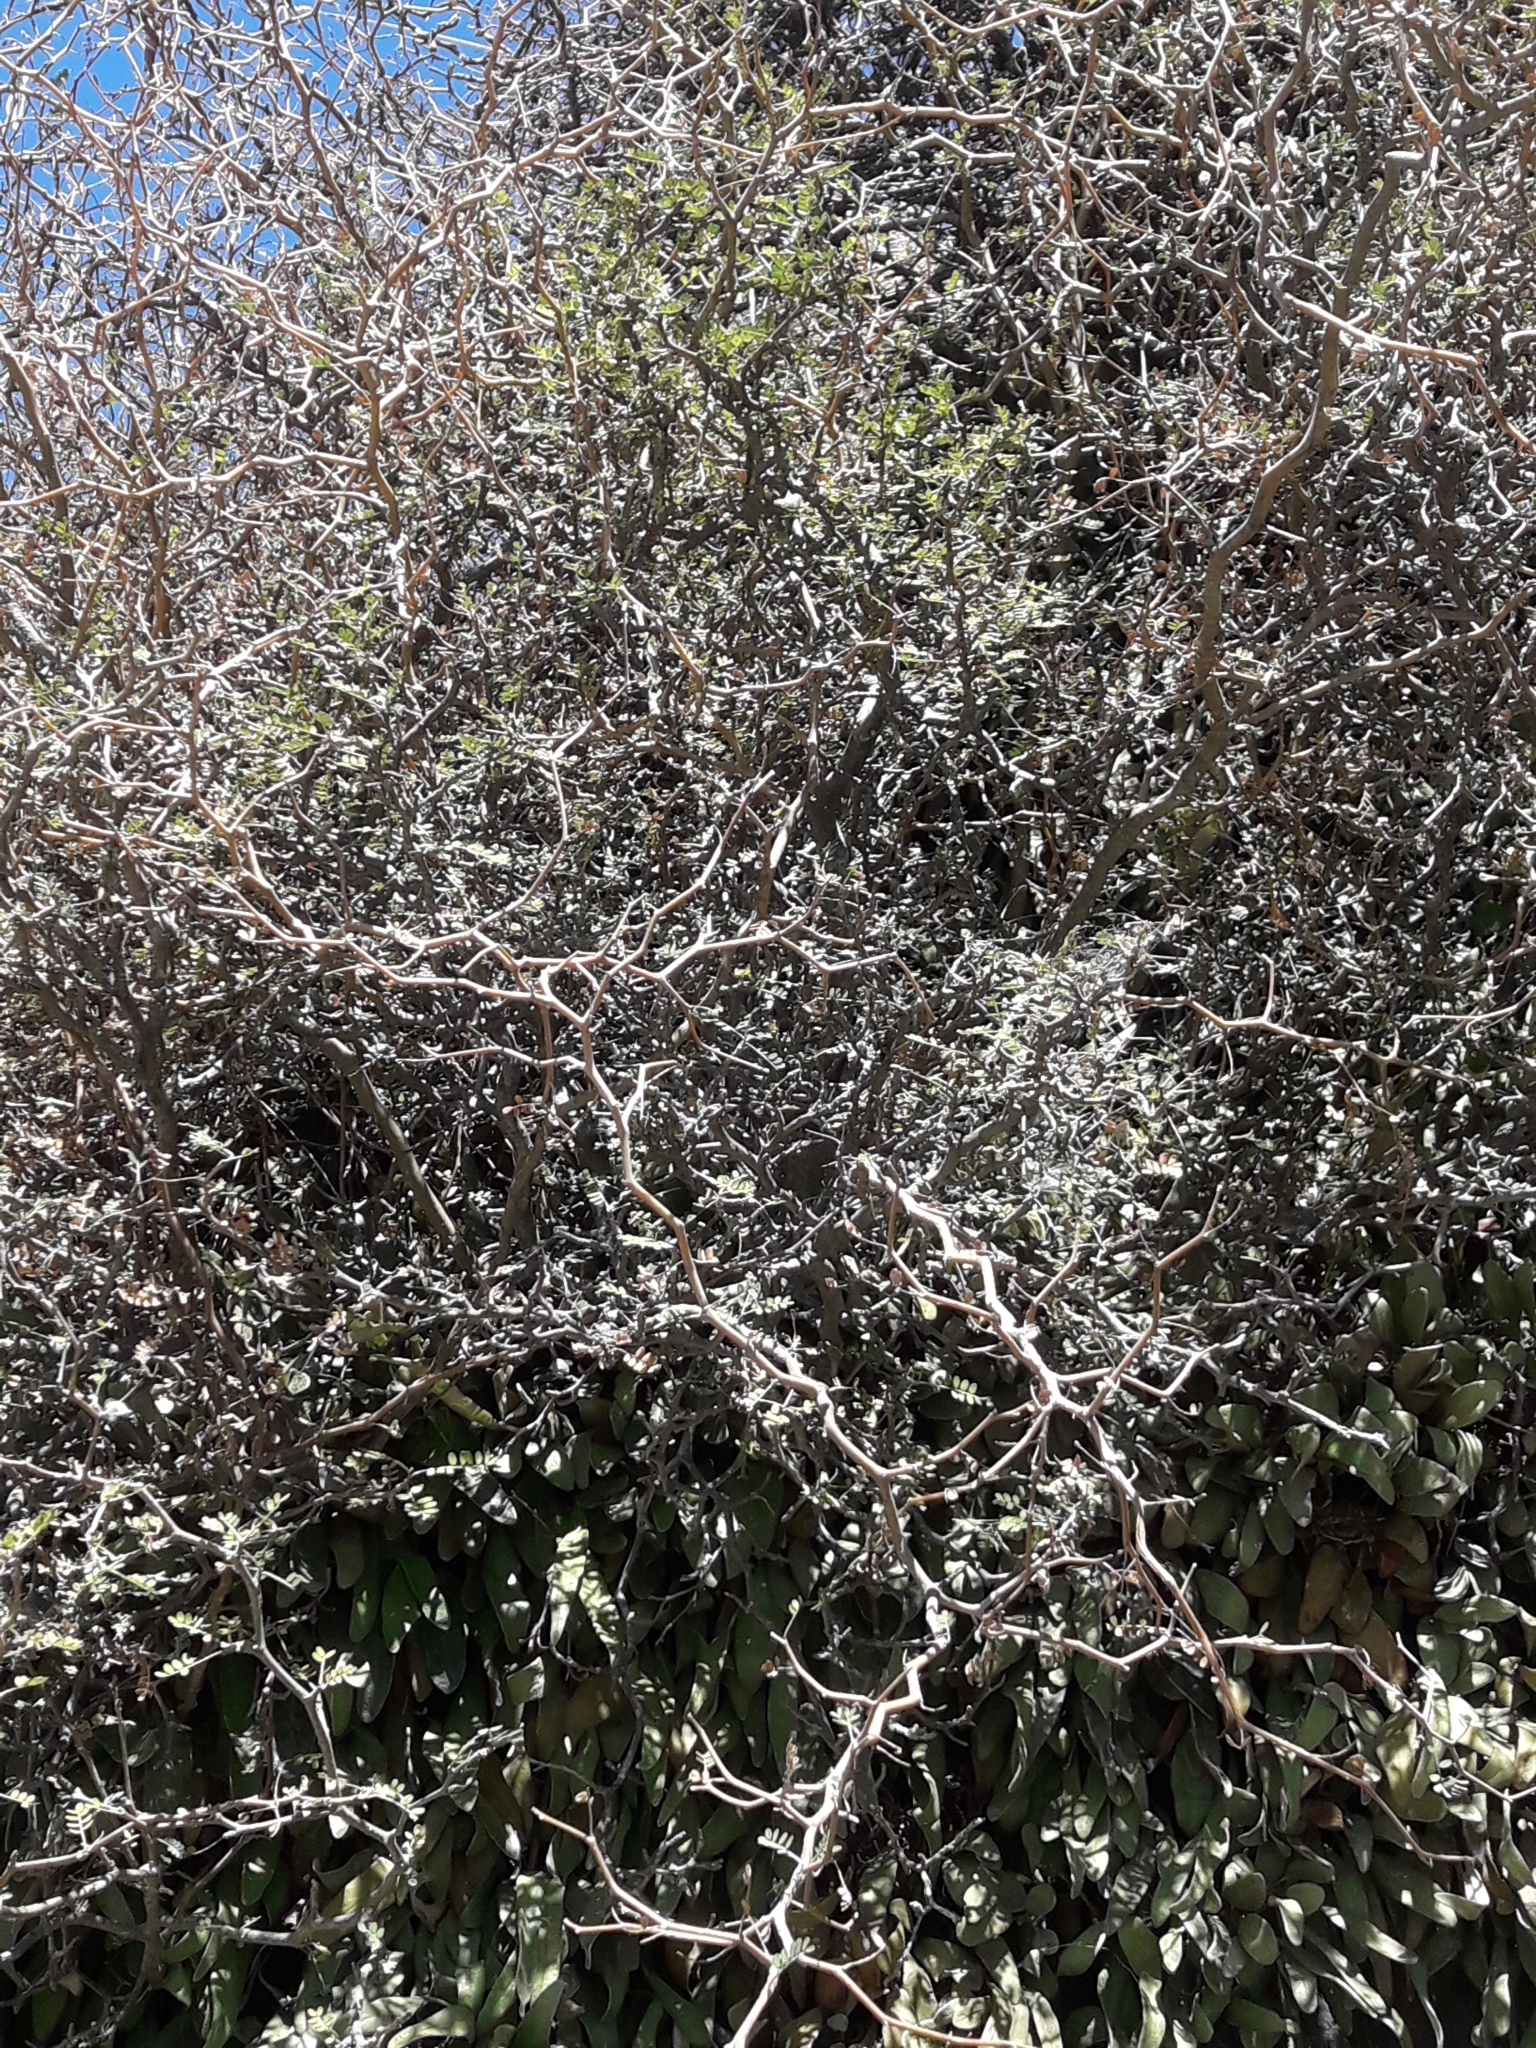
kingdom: Plantae
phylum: Tracheophyta
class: Magnoliopsida
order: Fabales
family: Fabaceae
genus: Sophora
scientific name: Sophora prostrata
